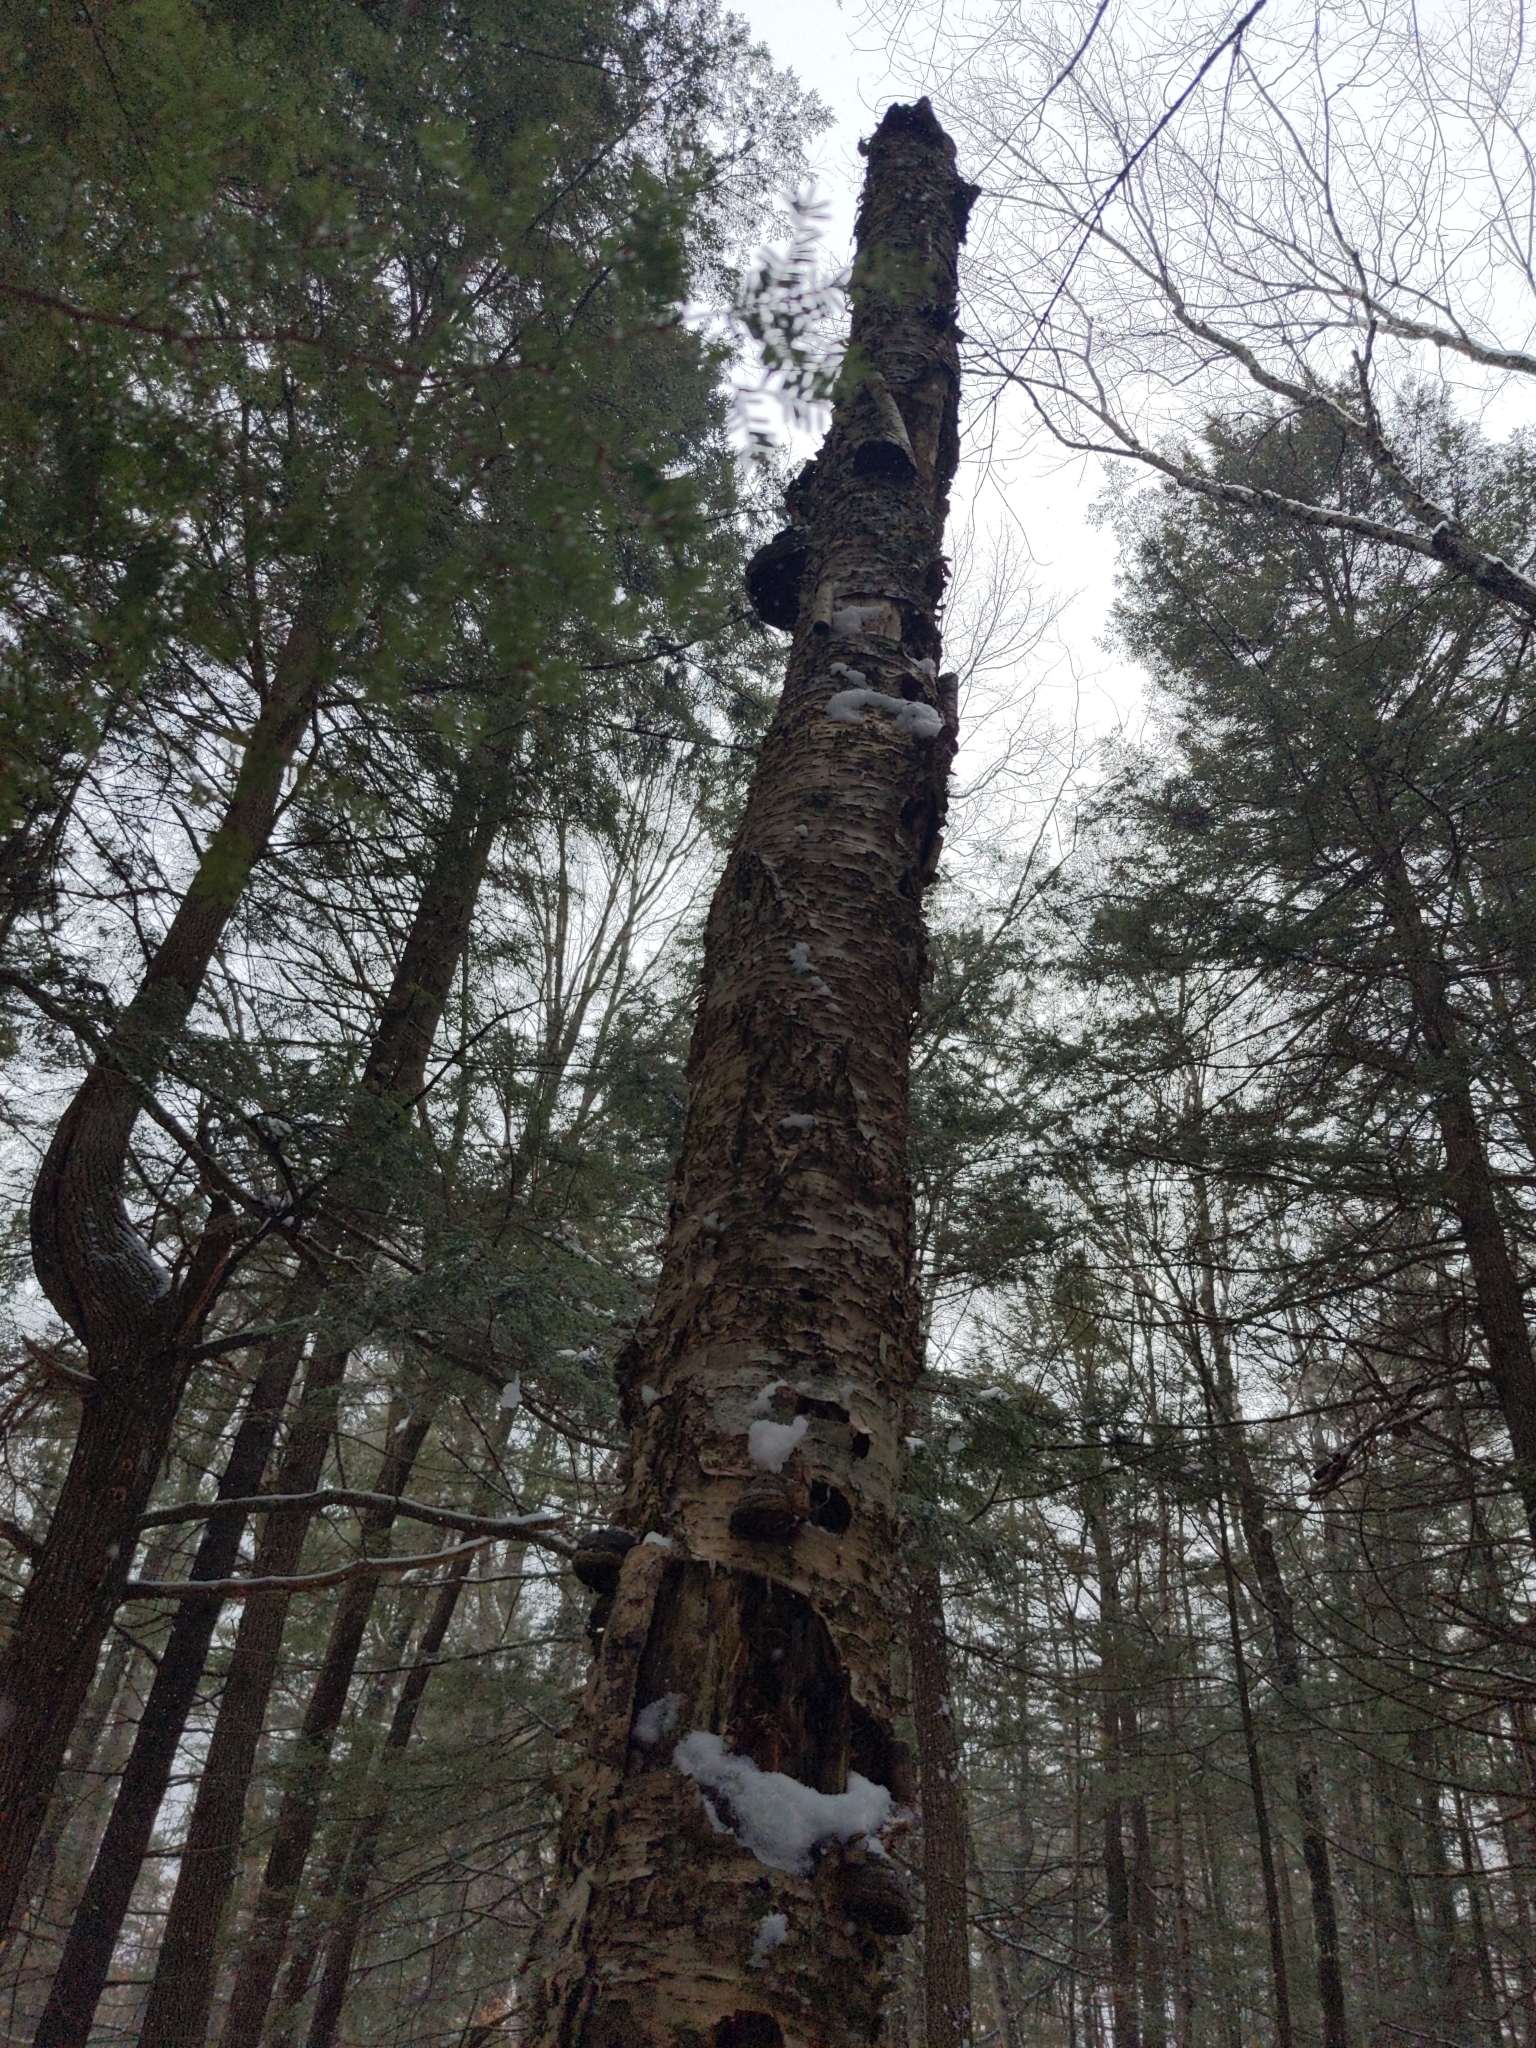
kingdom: Plantae
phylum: Tracheophyta
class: Magnoliopsida
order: Fagales
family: Betulaceae
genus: Betula
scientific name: Betula alleghaniensis
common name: Yellow birch
